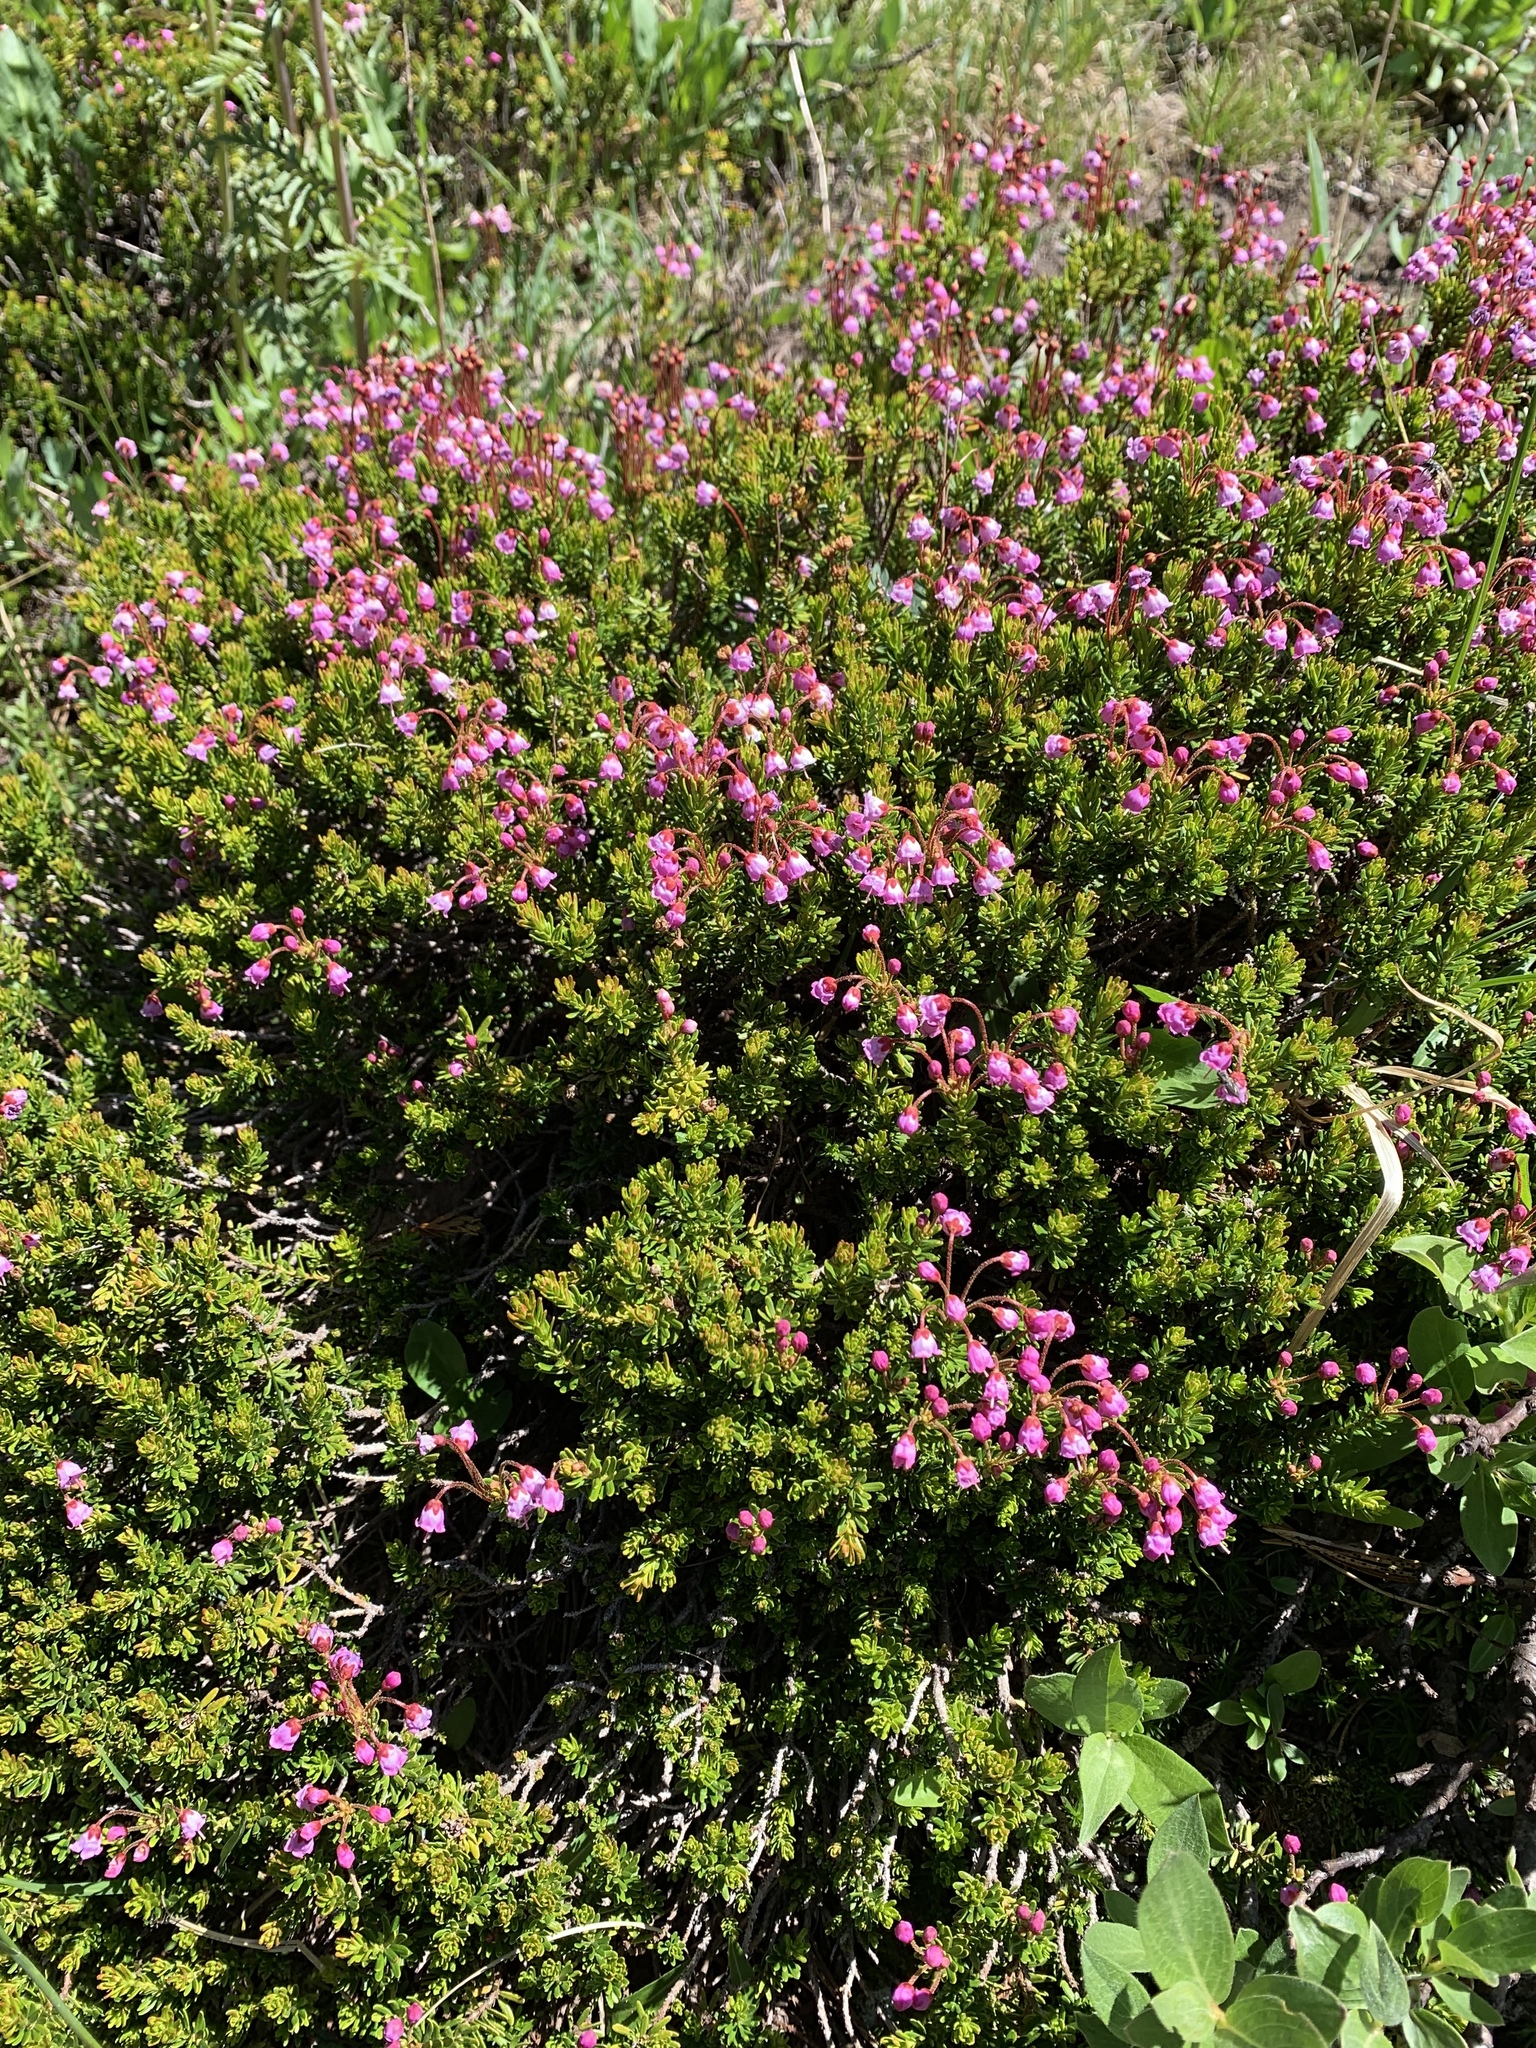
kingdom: Plantae
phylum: Tracheophyta
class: Magnoliopsida
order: Ericales
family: Ericaceae
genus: Phyllodoce
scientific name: Phyllodoce empetriformis
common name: Pink mountain heather
